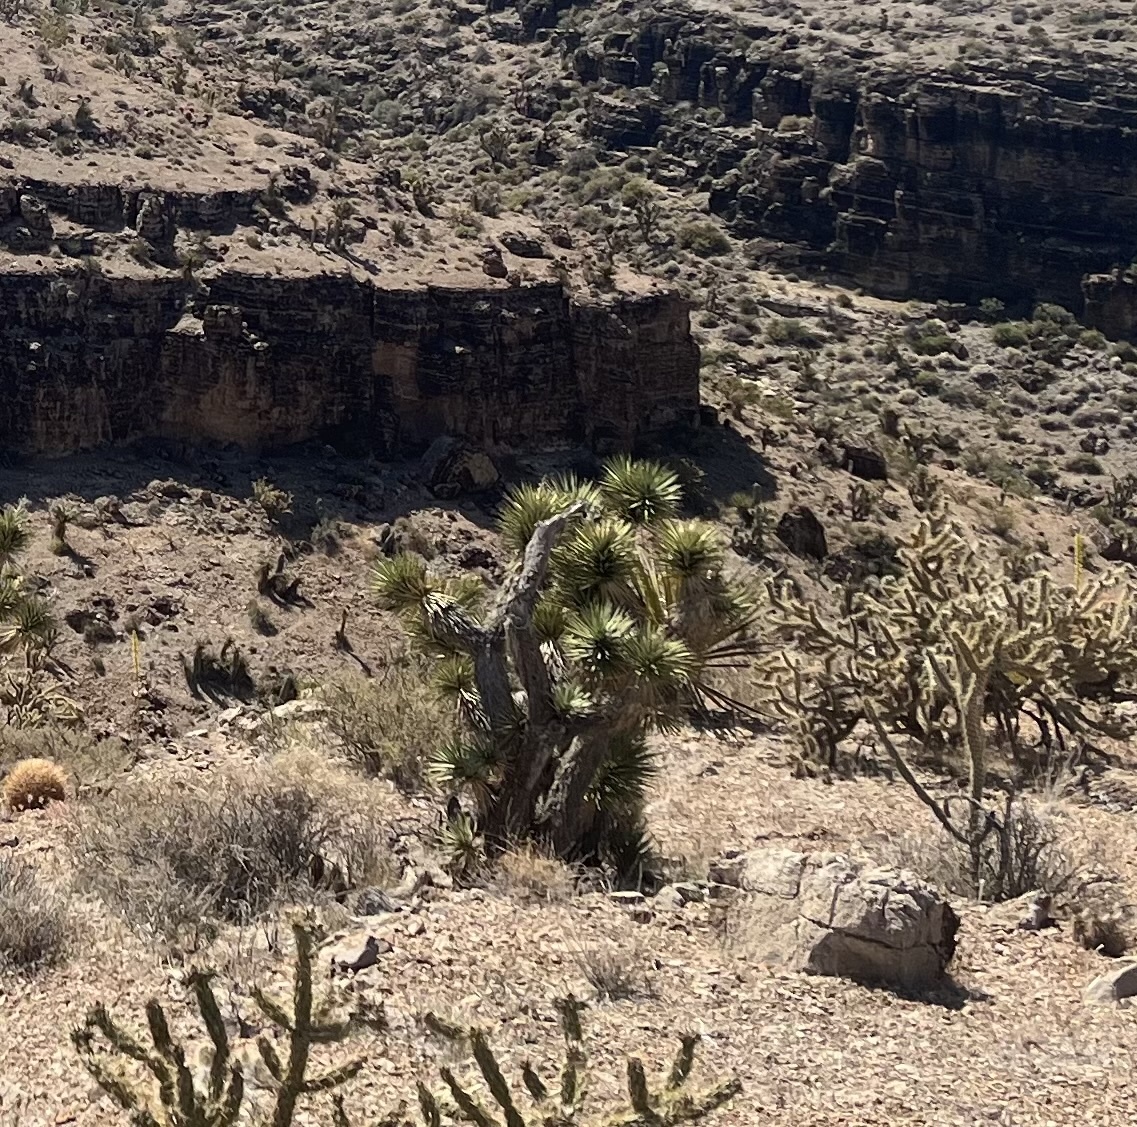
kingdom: Plantae
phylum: Tracheophyta
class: Liliopsida
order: Asparagales
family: Asparagaceae
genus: Yucca
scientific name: Yucca brevifolia
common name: Joshua tree
